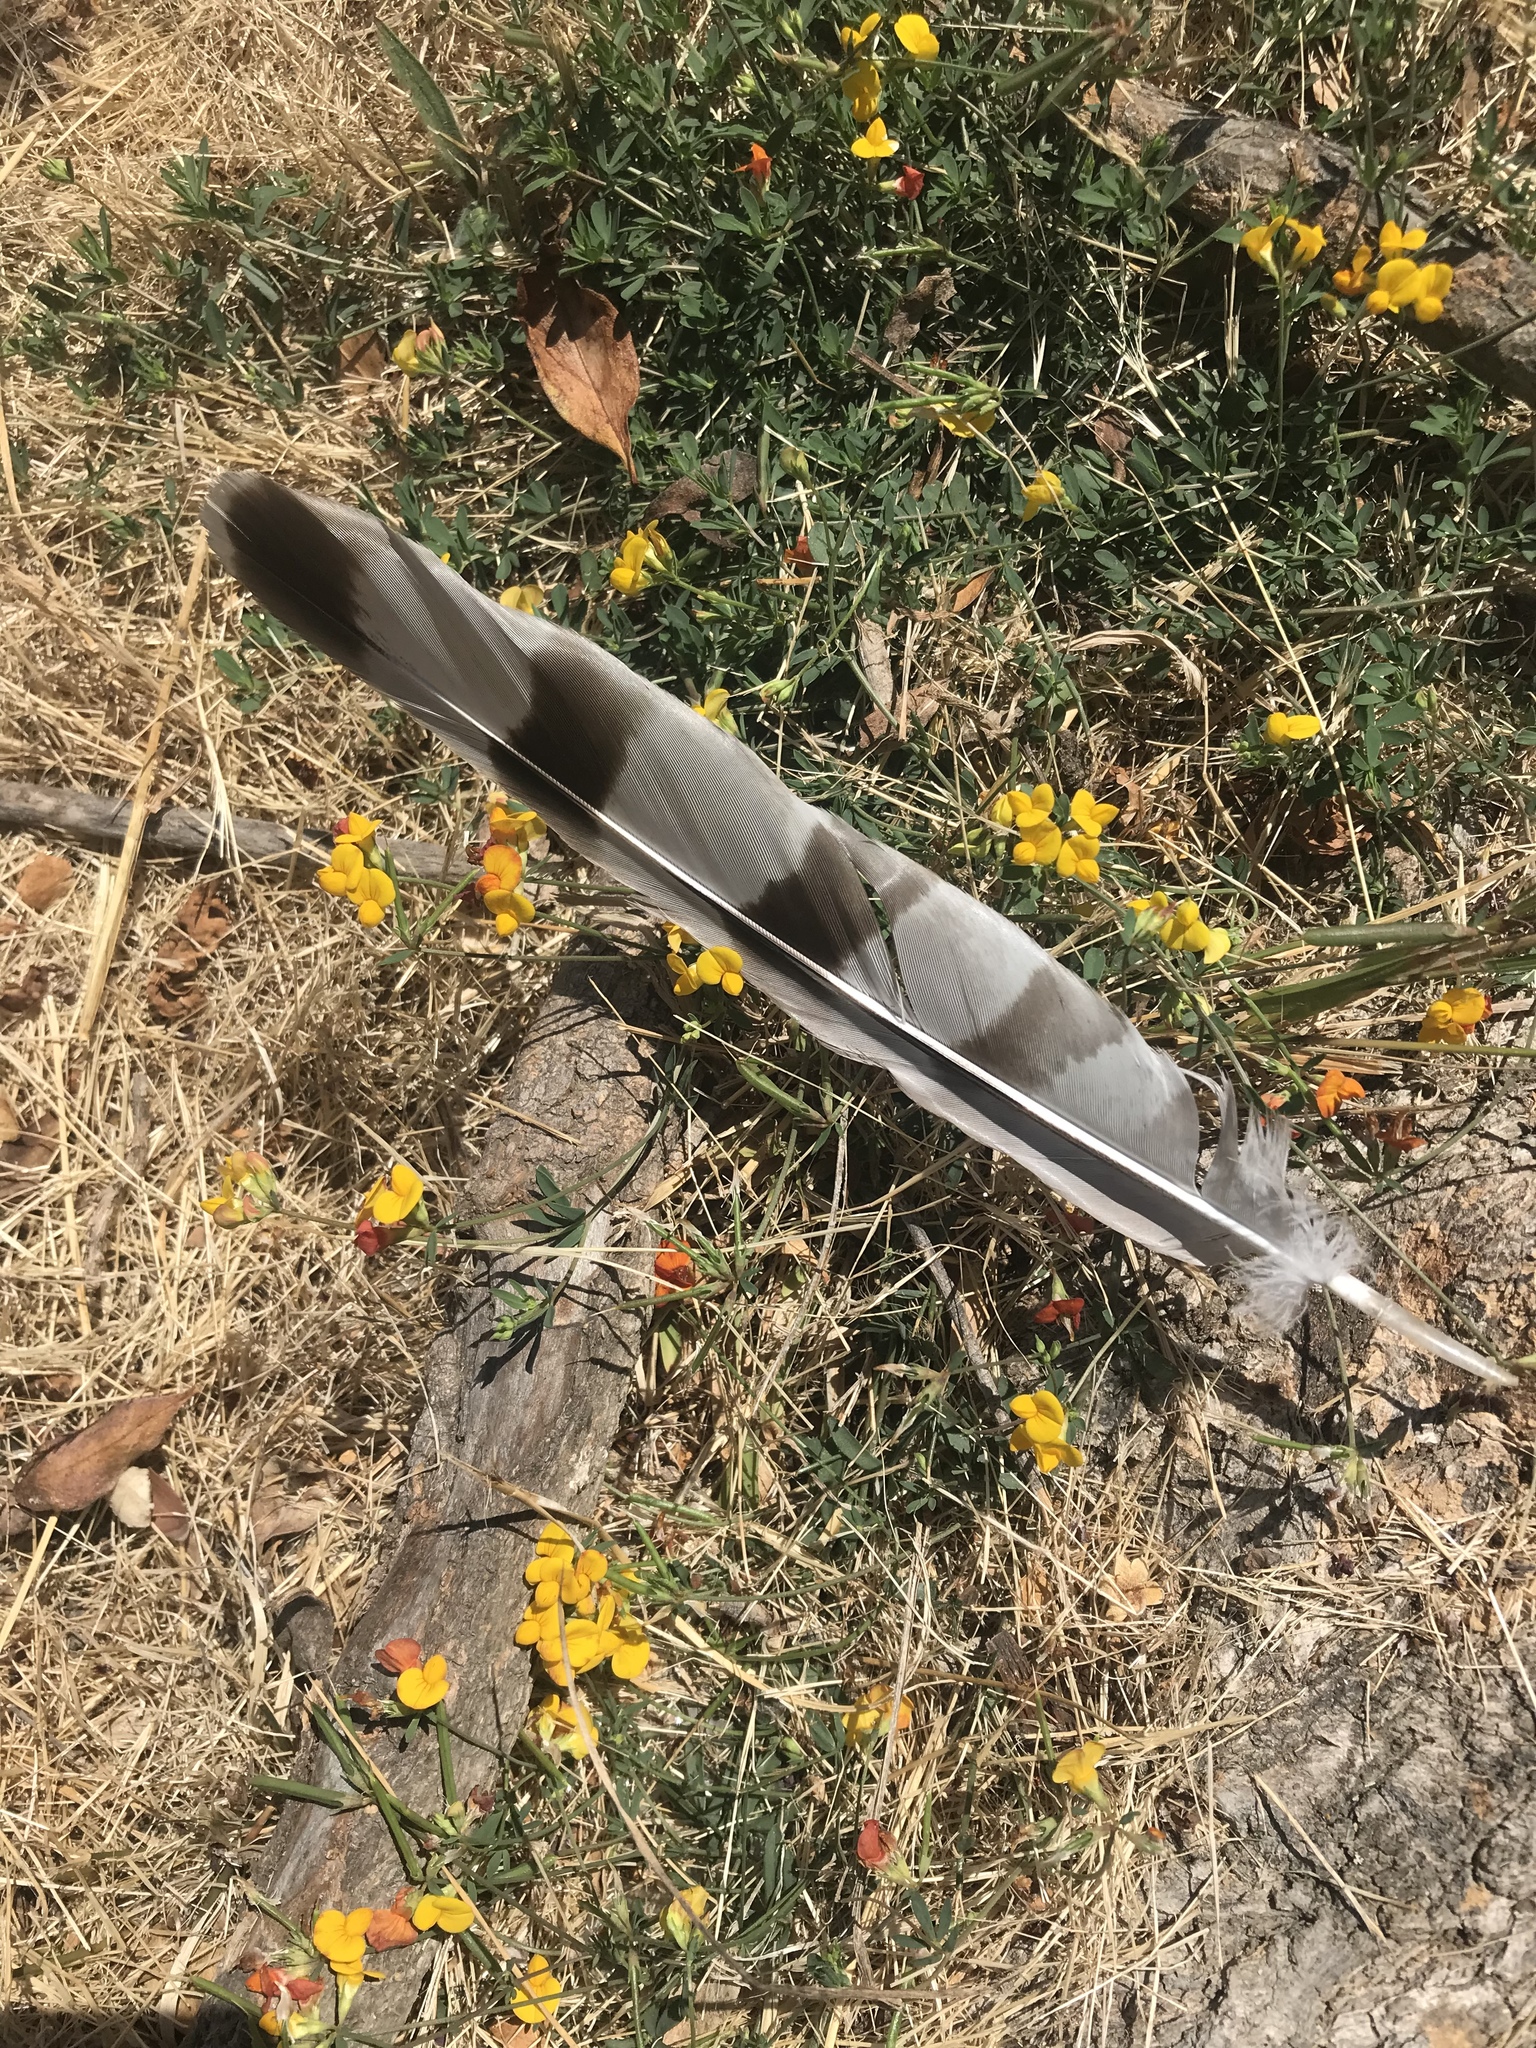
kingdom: Animalia
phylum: Chordata
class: Aves
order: Accipitriformes
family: Accipitridae
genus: Accipiter
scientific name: Accipiter cooperii
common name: Cooper's hawk
